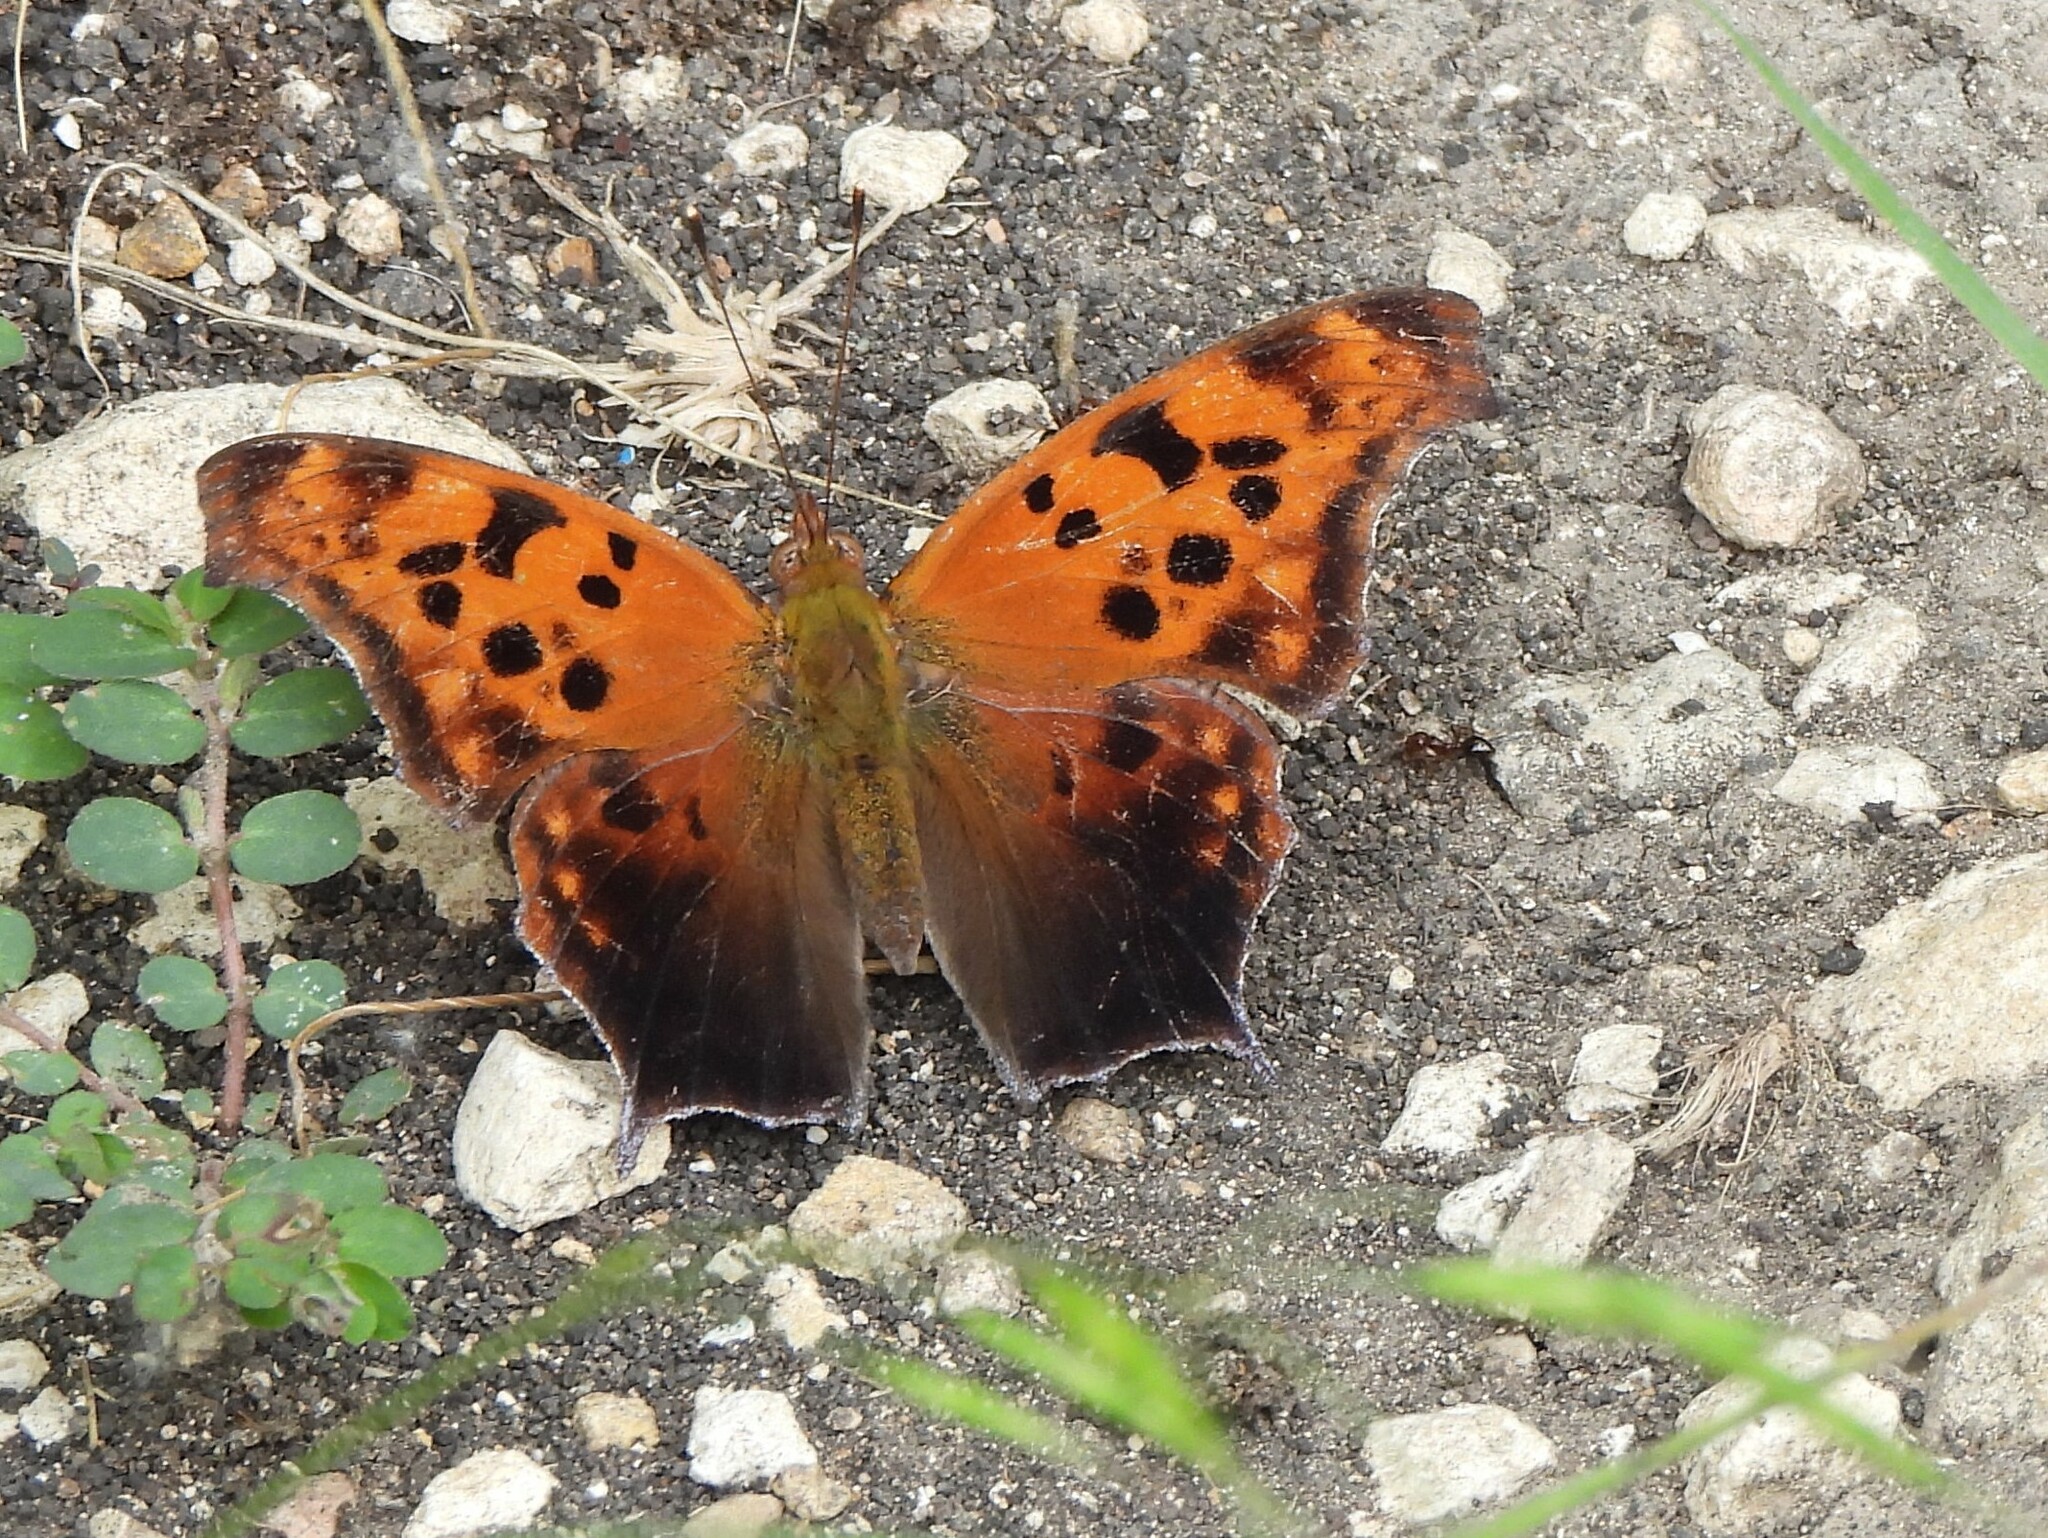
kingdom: Animalia
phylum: Arthropoda
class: Insecta
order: Lepidoptera
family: Nymphalidae
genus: Polygonia
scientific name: Polygonia interrogationis
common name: Question mark
